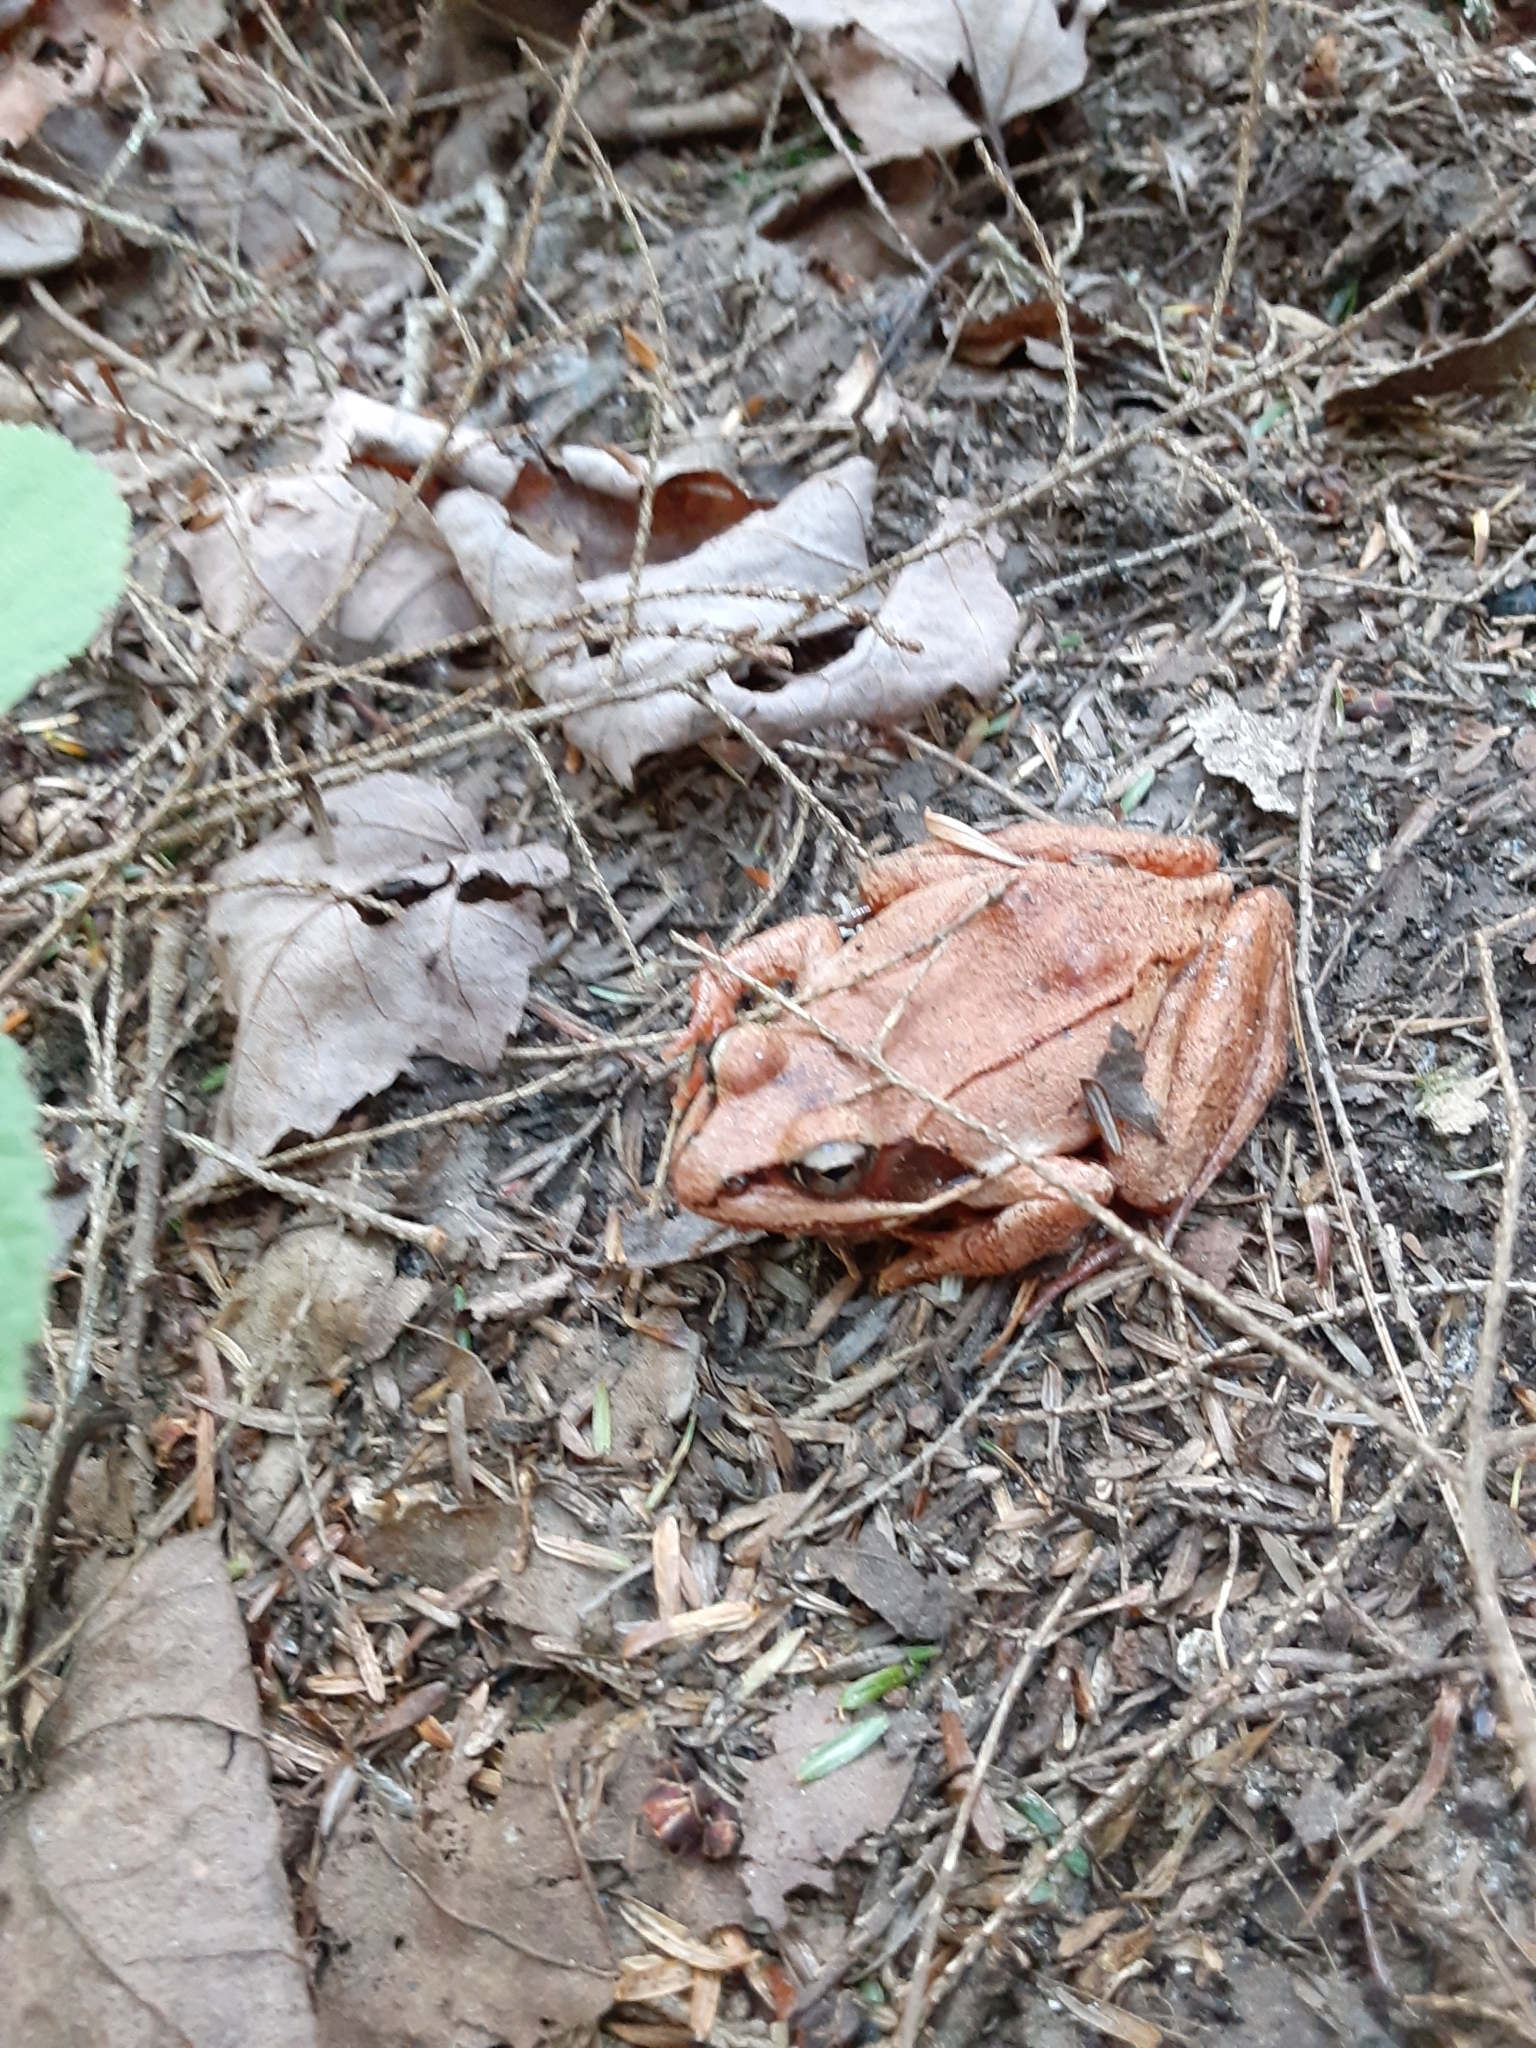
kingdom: Animalia
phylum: Chordata
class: Amphibia
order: Anura
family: Ranidae
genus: Lithobates
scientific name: Lithobates sylvaticus
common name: Wood frog
